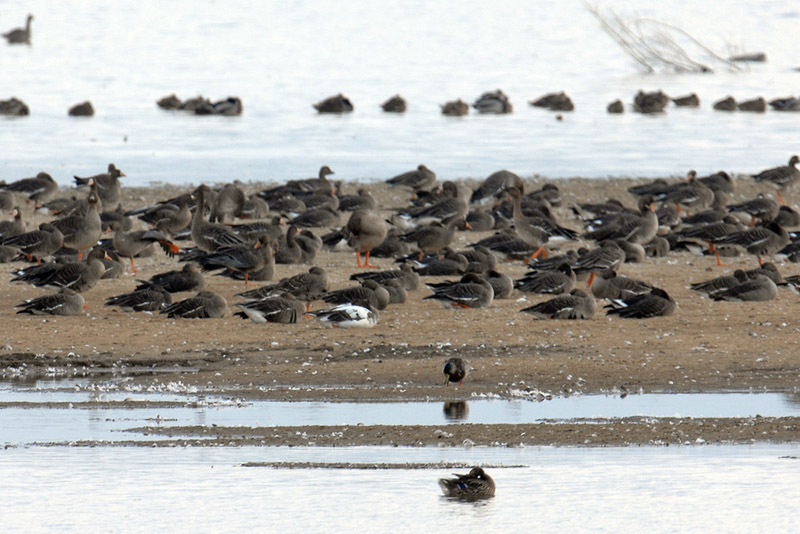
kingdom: Animalia
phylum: Chordata
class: Aves
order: Anseriformes
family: Anatidae
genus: Anser
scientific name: Anser fabalis
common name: Bean goose
